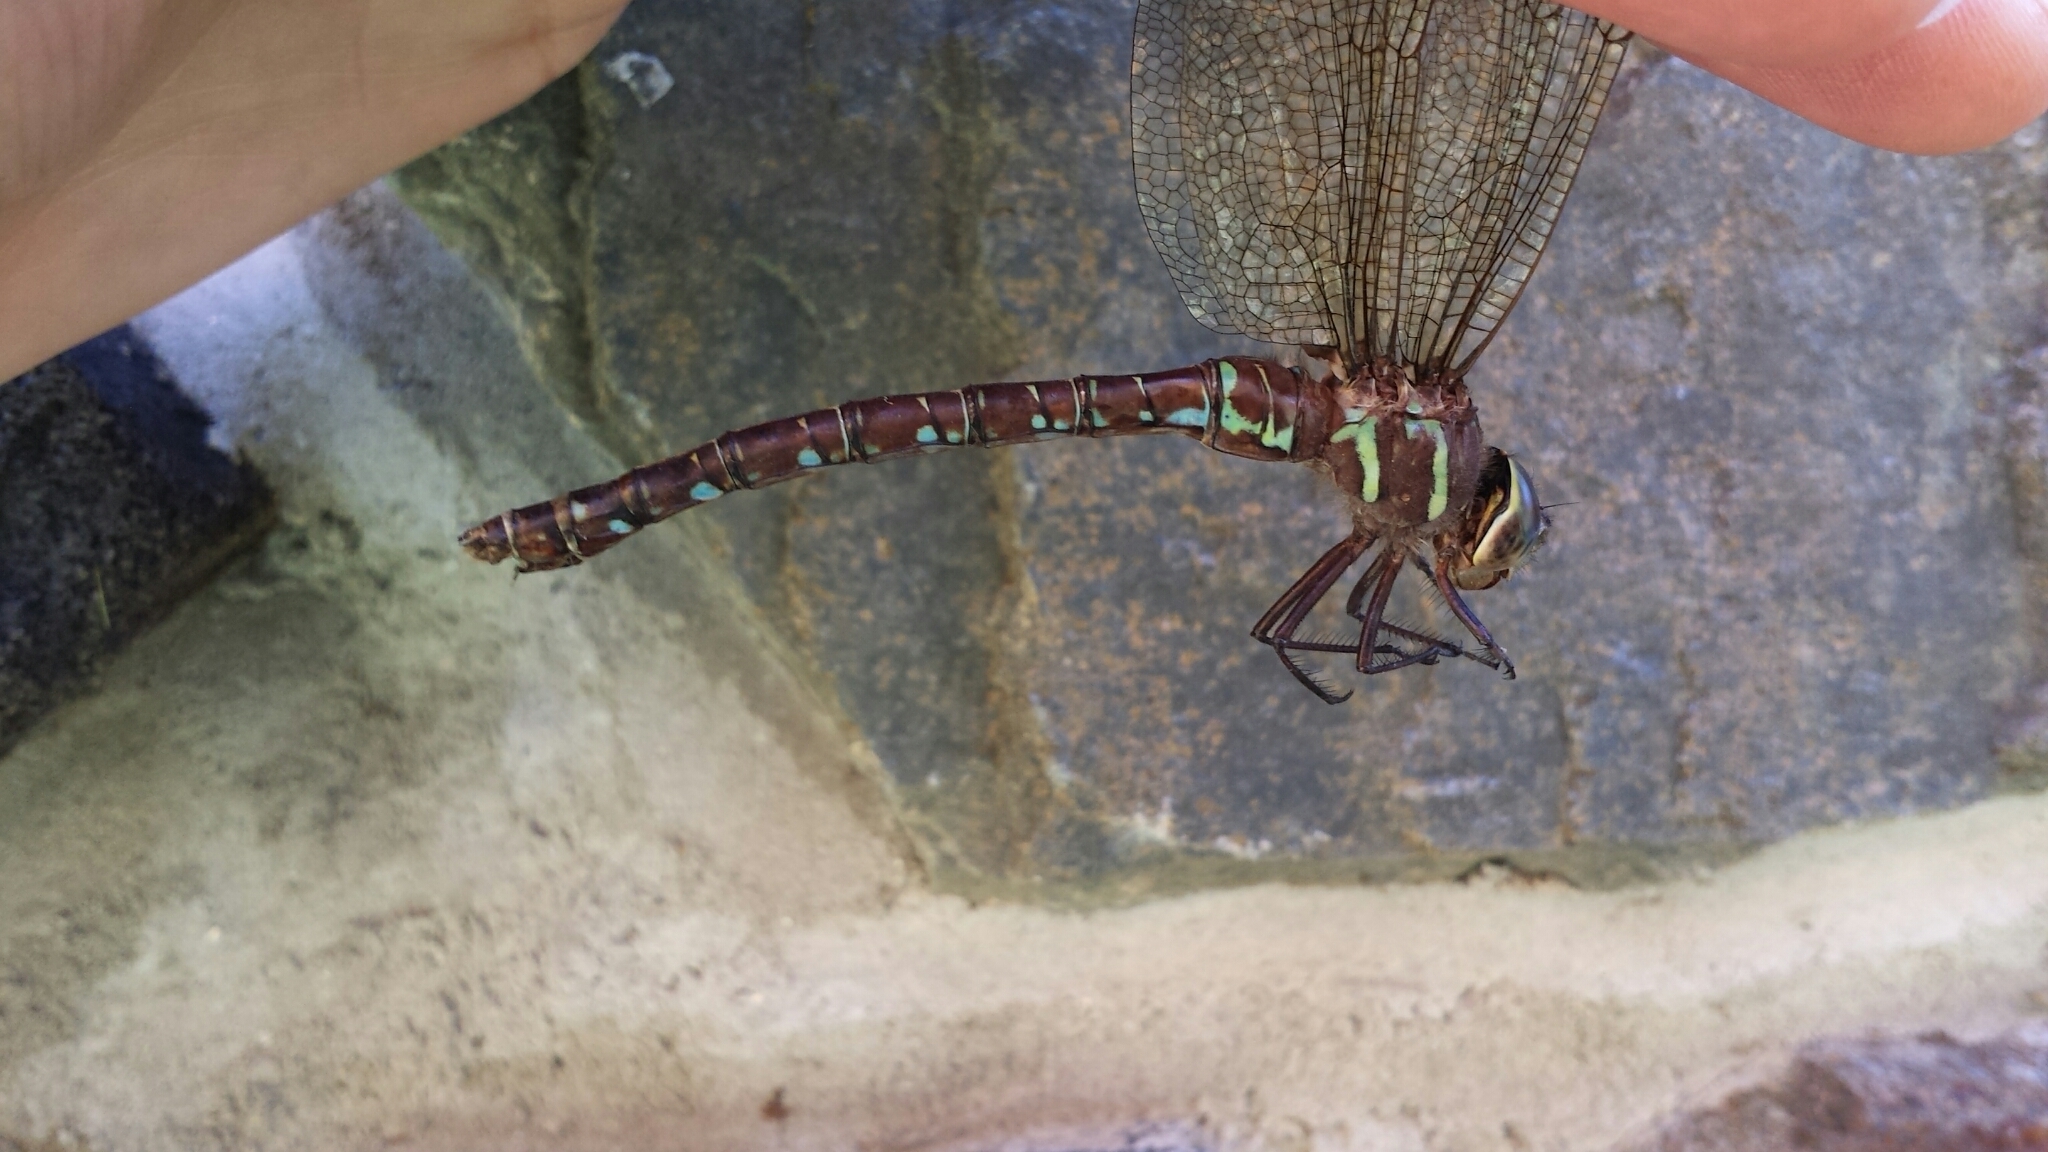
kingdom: Animalia
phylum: Arthropoda
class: Insecta
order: Odonata
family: Aeshnidae
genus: Aeshna
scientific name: Aeshna umbrosa
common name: Shadow darner
